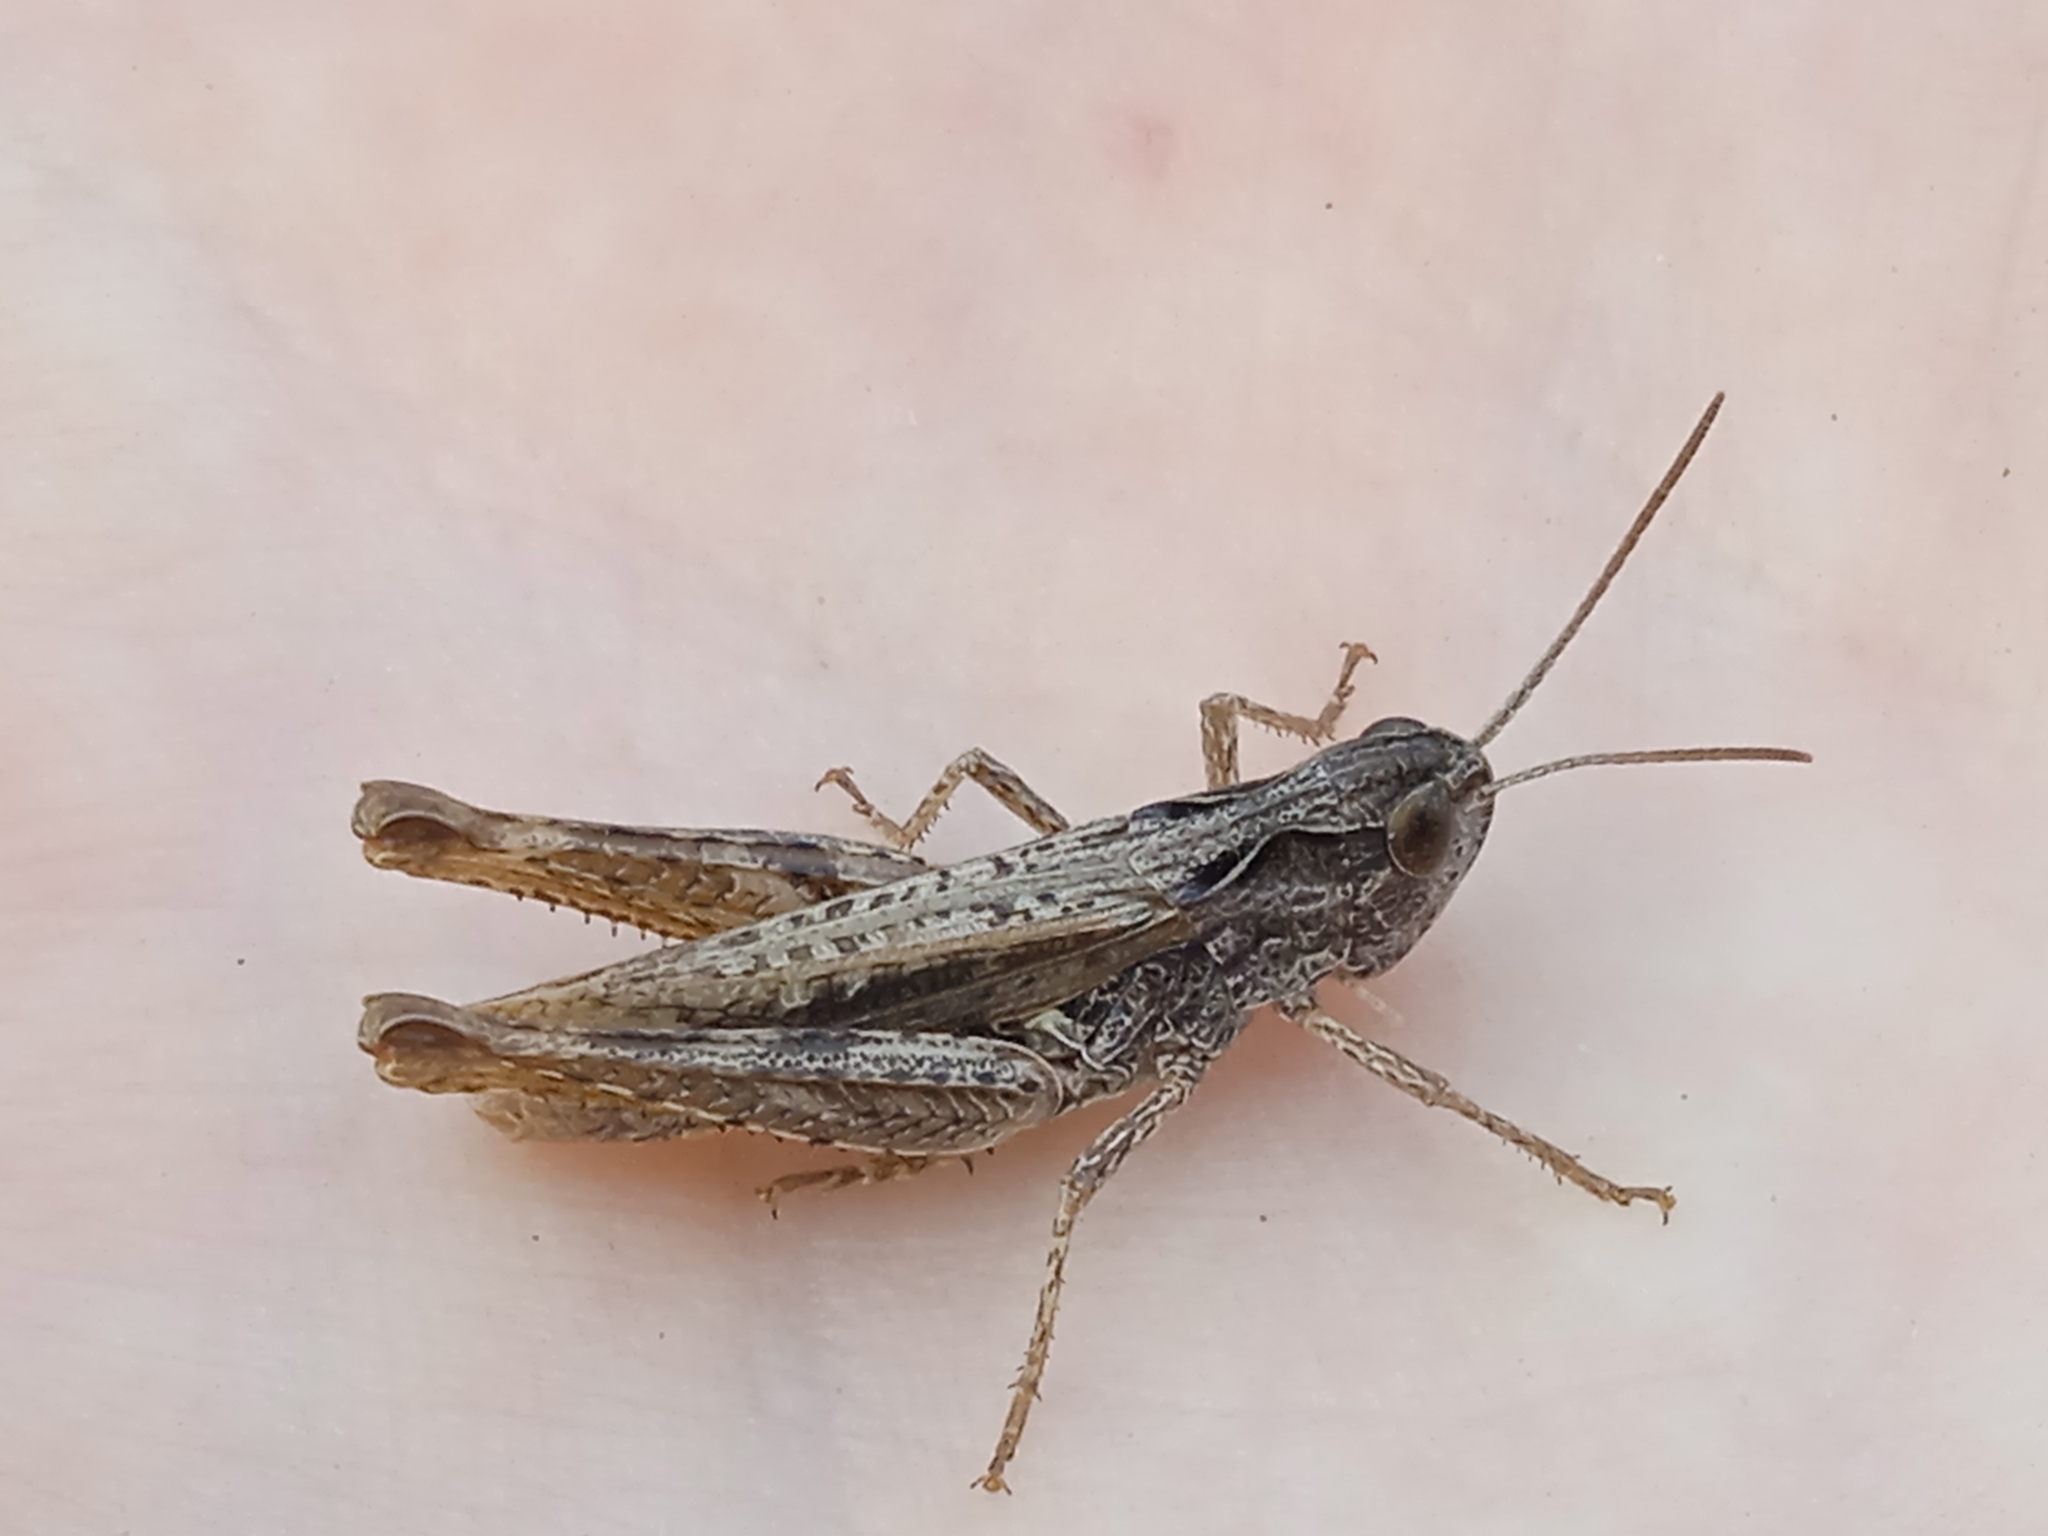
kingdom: Animalia
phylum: Arthropoda
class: Insecta
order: Orthoptera
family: Acrididae
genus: Chorthippus
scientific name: Chorthippus apricarius
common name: Upland field grasshopper
